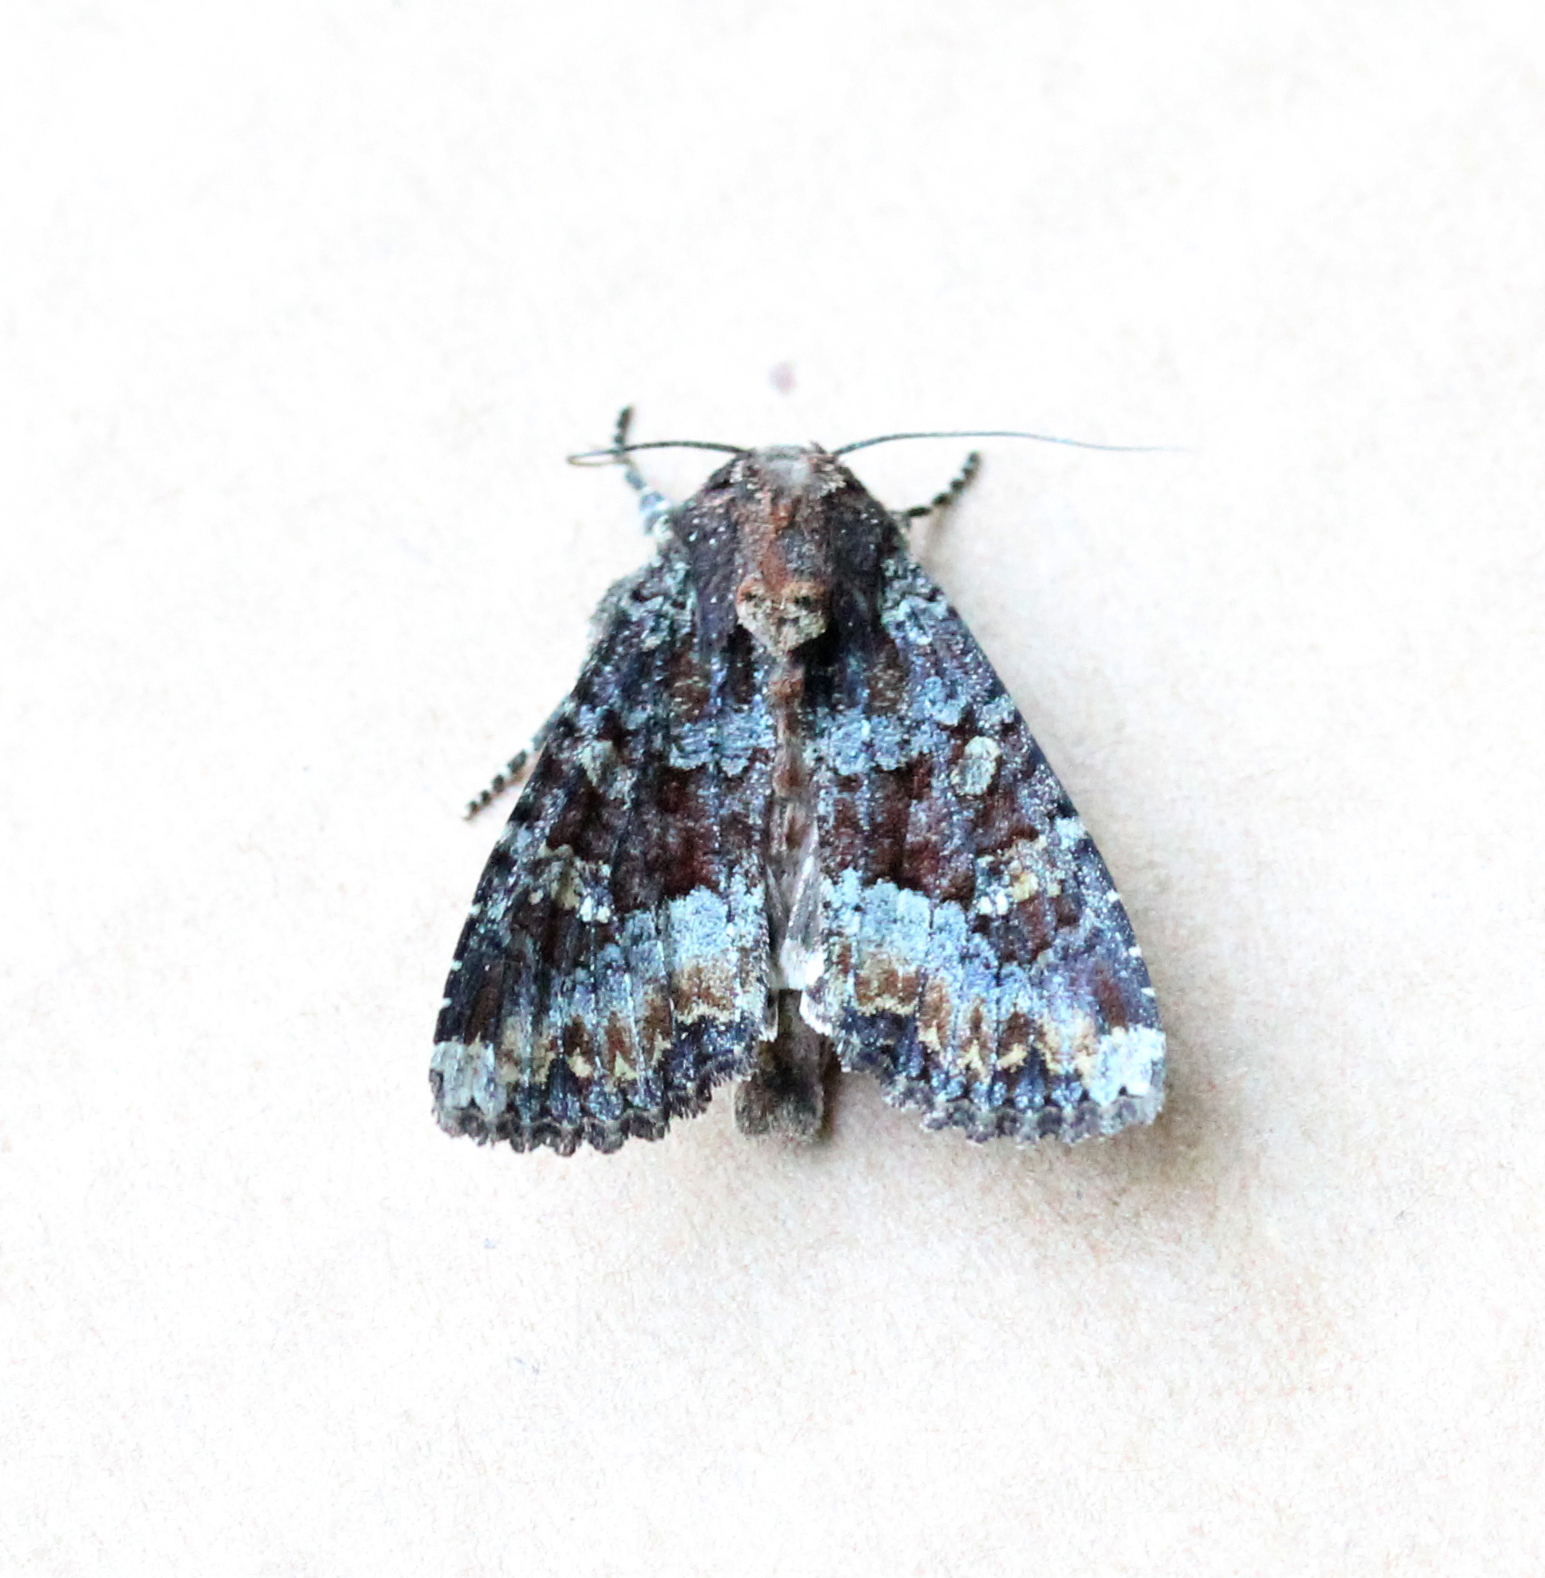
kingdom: Animalia
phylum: Arthropoda
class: Insecta
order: Lepidoptera
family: Noctuidae
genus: Apamea
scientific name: Apamea amputatrix
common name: Yellow-headed cutworm moth
